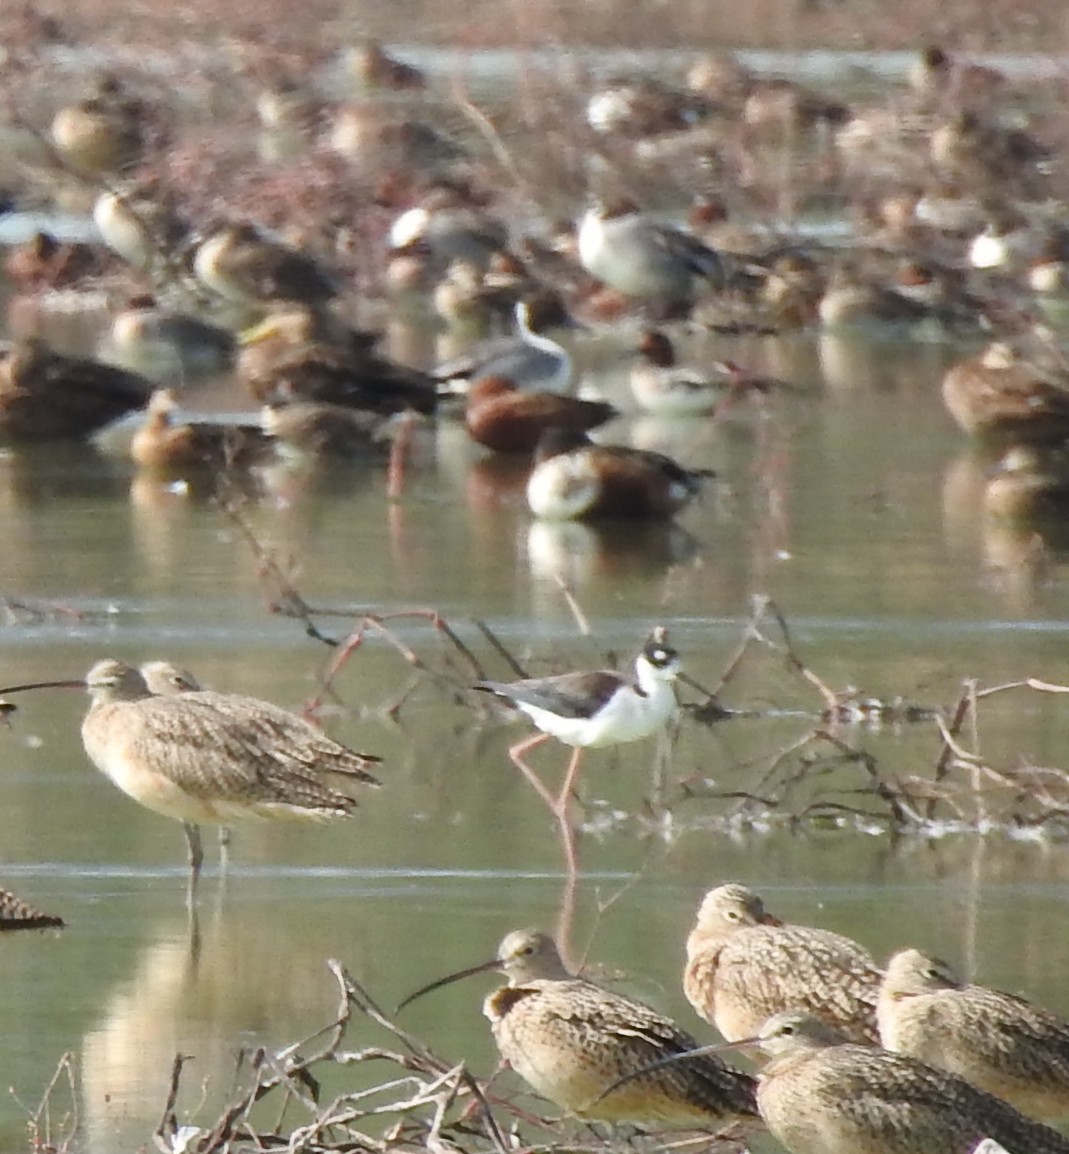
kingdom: Animalia
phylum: Chordata
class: Aves
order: Charadriiformes
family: Recurvirostridae
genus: Himantopus
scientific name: Himantopus mexicanus
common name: Black-necked stilt
